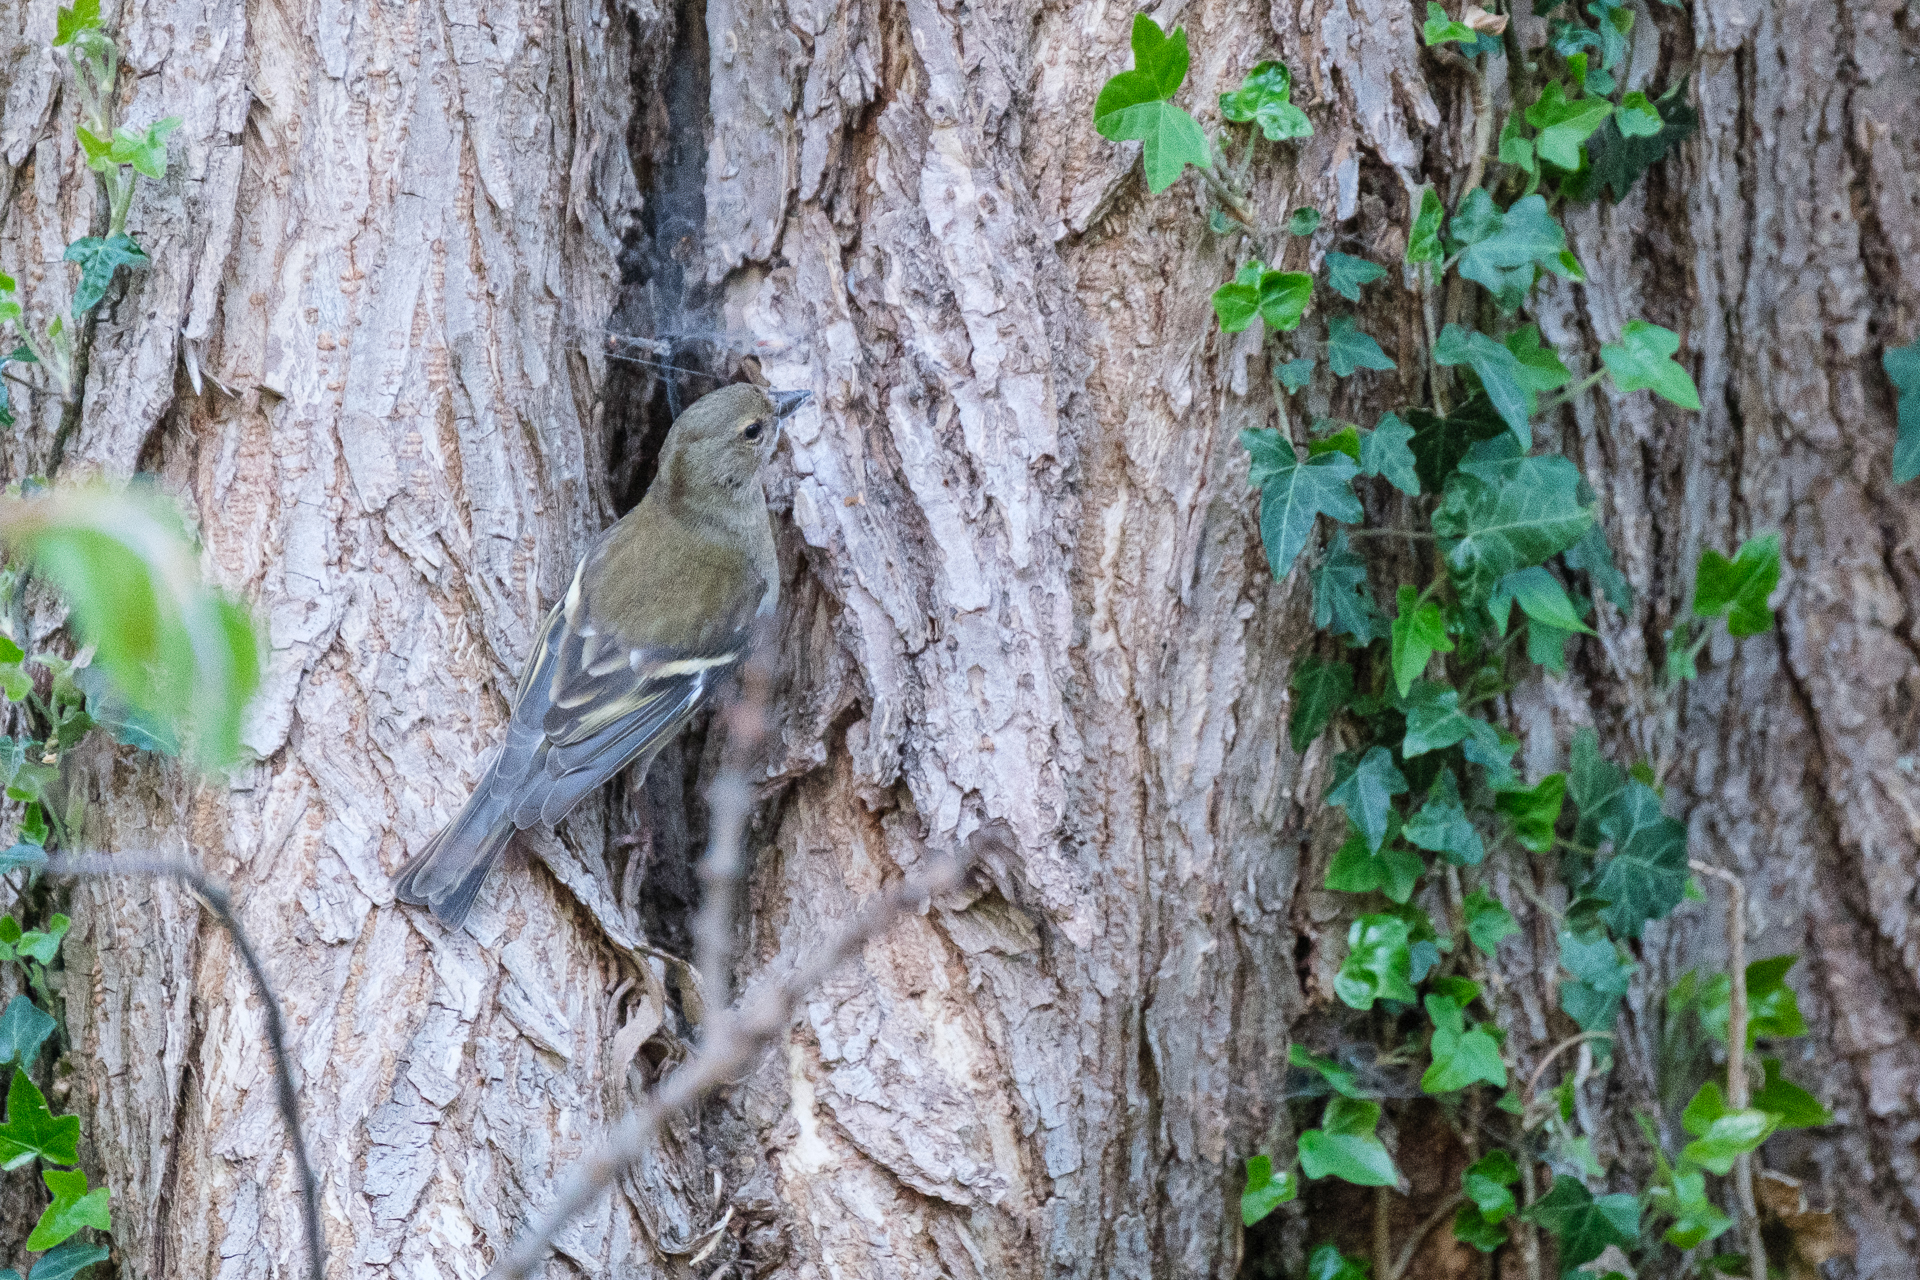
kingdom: Animalia
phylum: Chordata
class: Aves
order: Passeriformes
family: Fringillidae
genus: Fringilla
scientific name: Fringilla coelebs
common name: Common chaffinch
